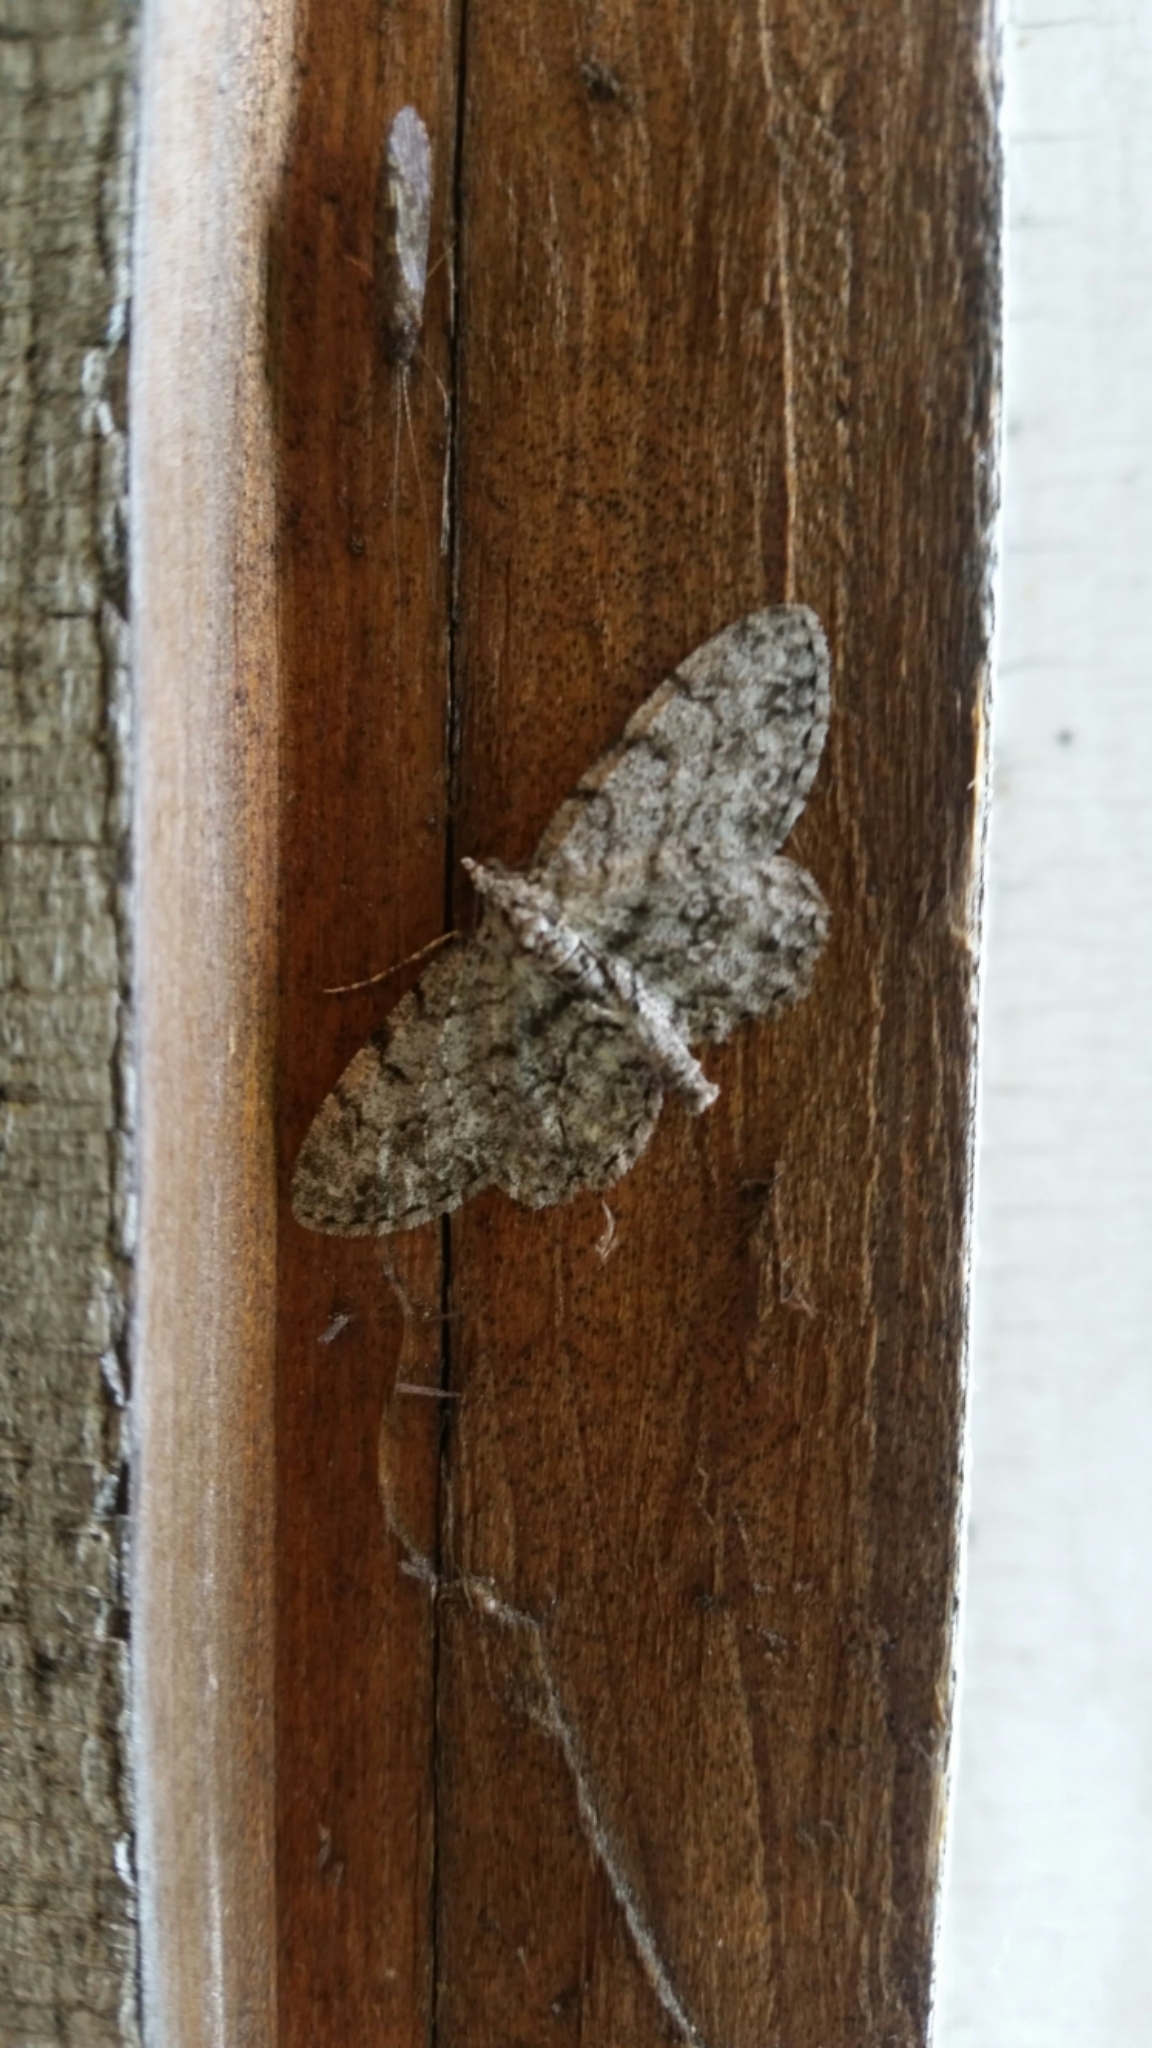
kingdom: Animalia
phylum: Arthropoda
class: Insecta
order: Lepidoptera
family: Geometridae
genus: Protoboarmia
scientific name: Protoboarmia porcelaria
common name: Porcelain gray
